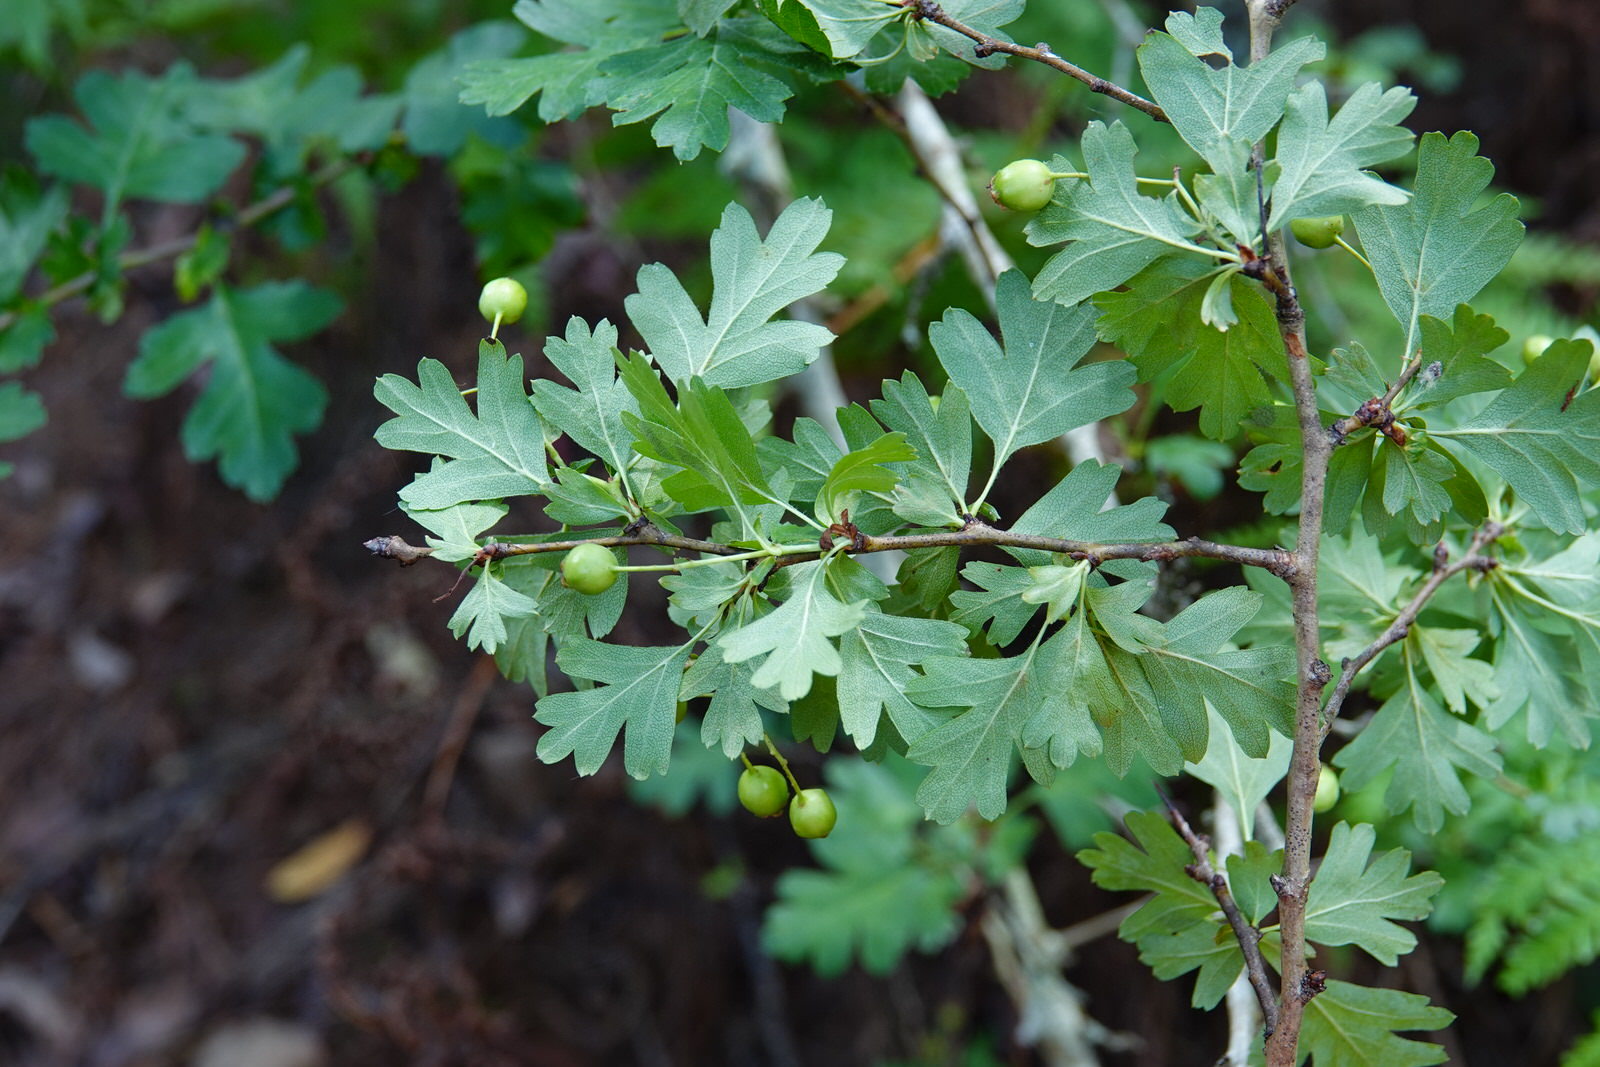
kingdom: Plantae
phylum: Tracheophyta
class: Magnoliopsida
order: Rosales
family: Rosaceae
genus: Crataegus
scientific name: Crataegus monogyna
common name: Hawthorn
